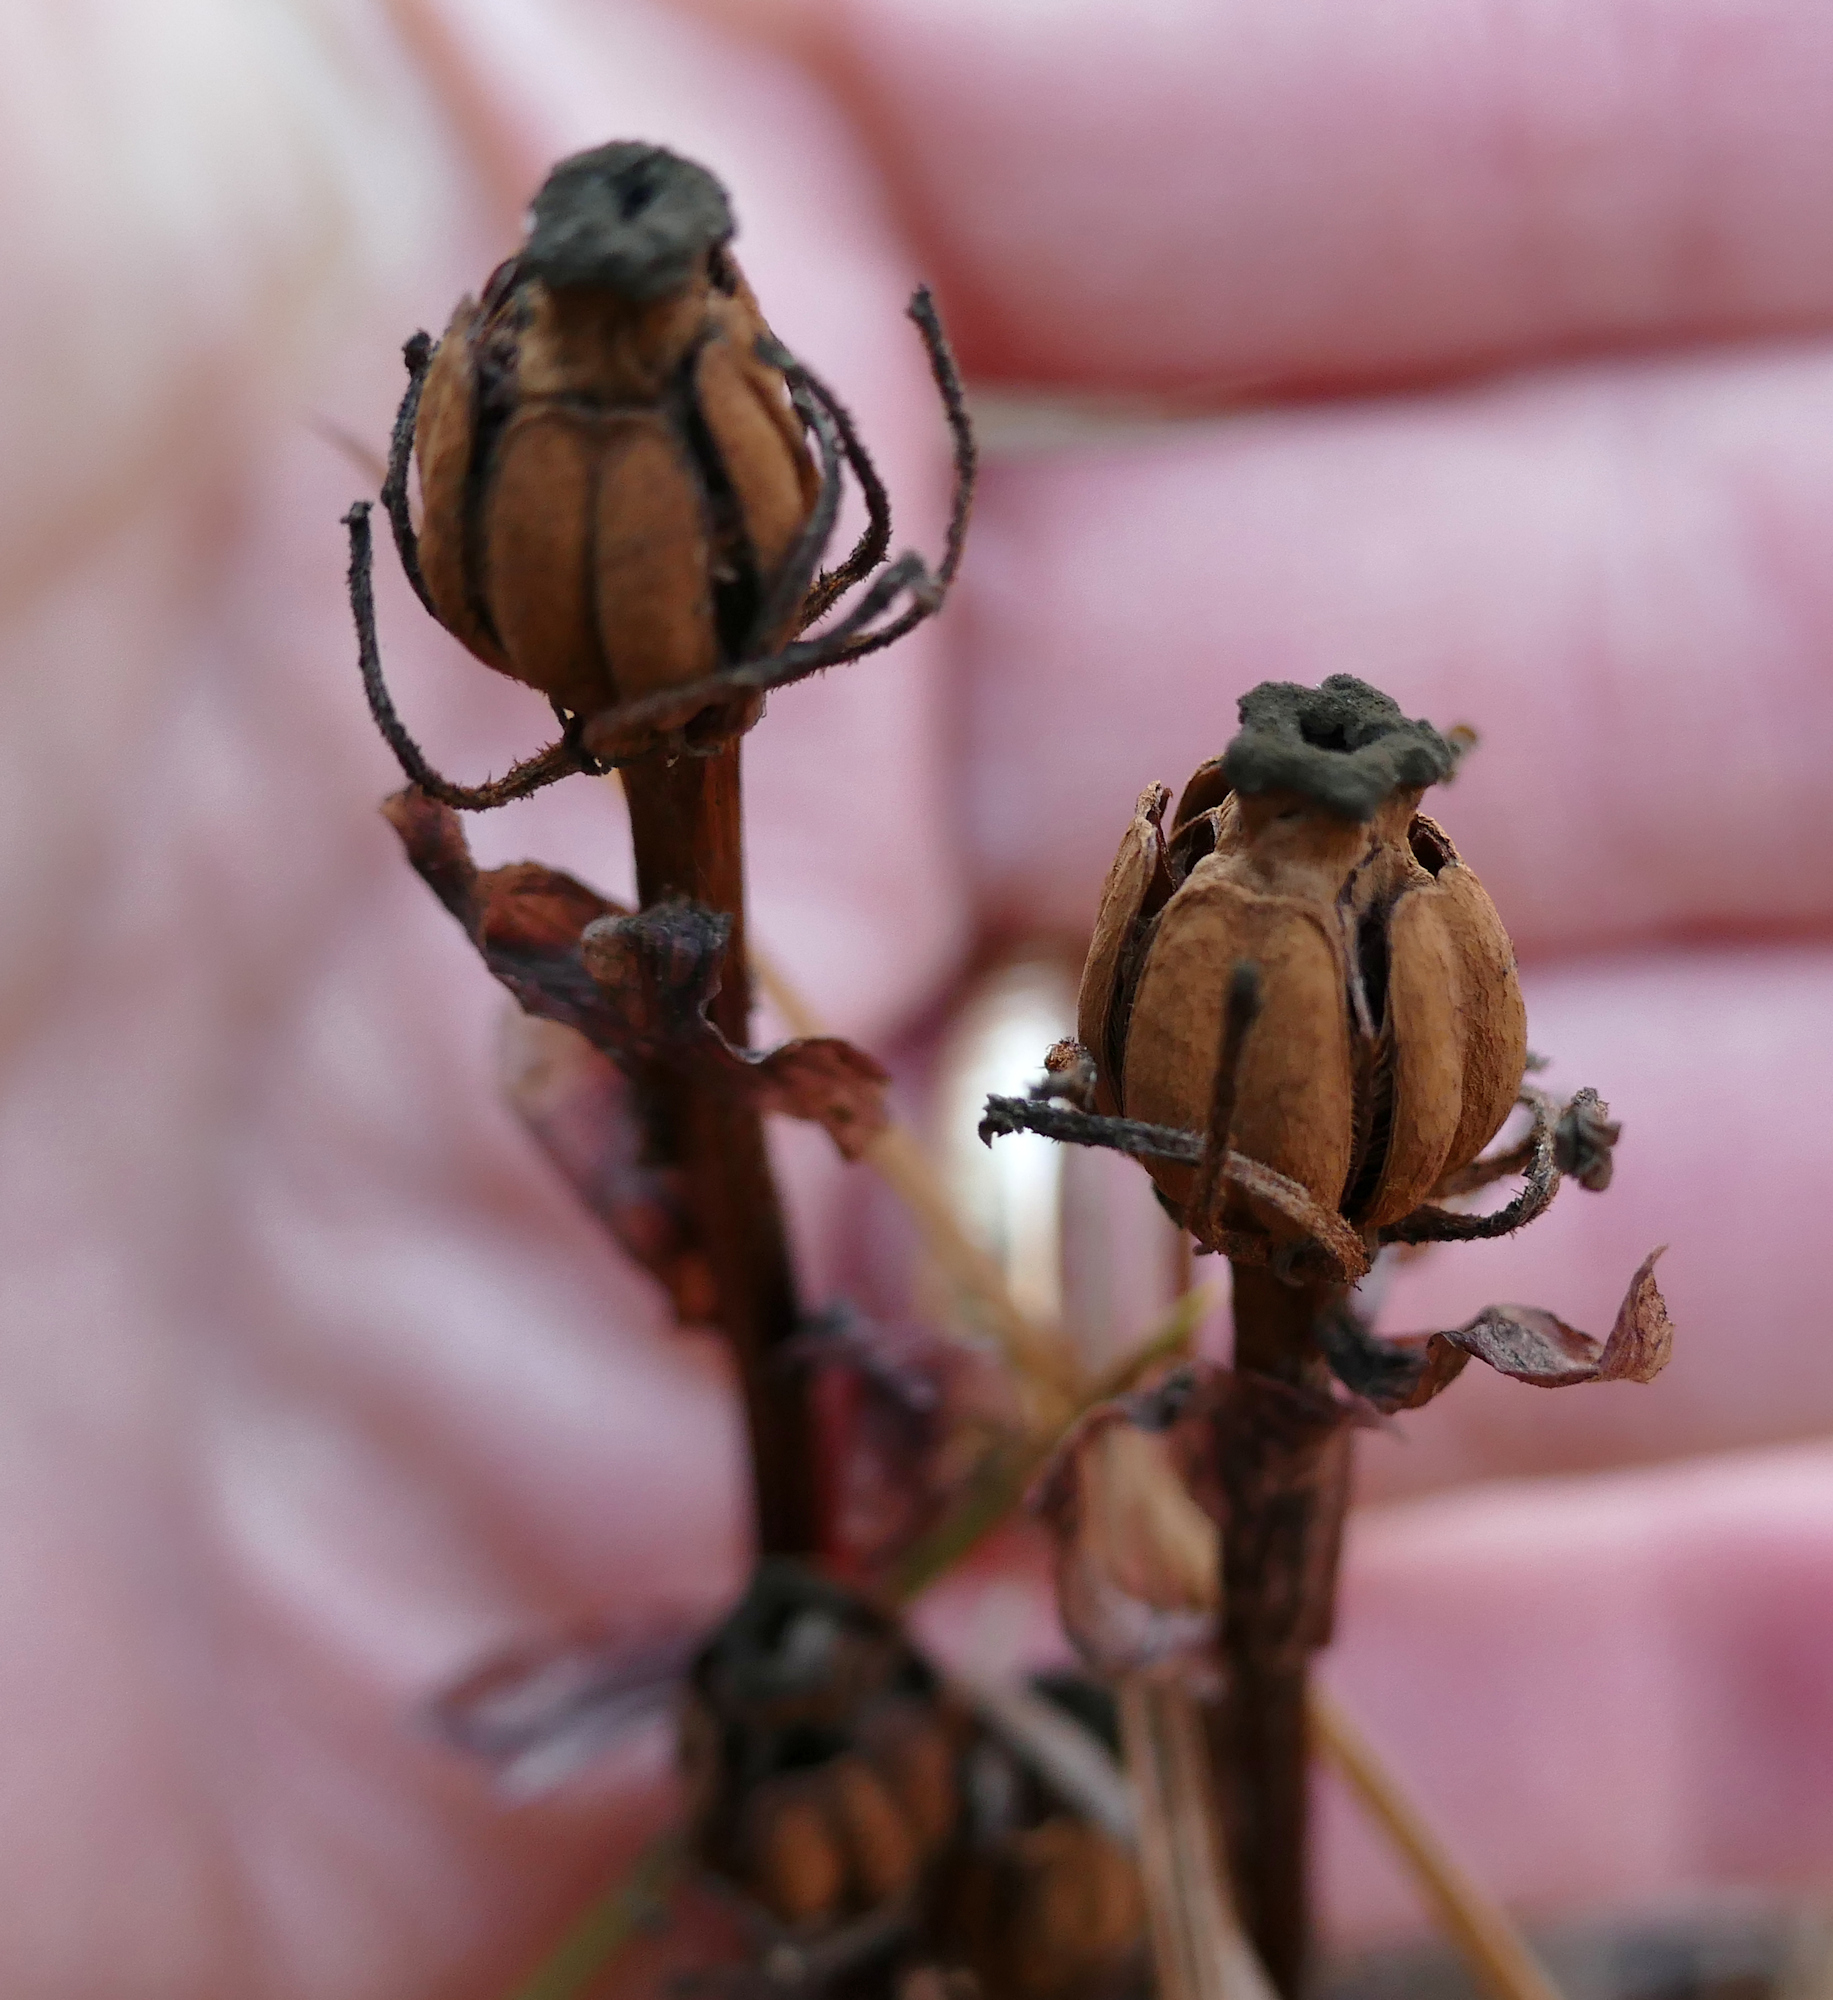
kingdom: Plantae
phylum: Tracheophyta
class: Magnoliopsida
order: Ericales
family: Ericaceae
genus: Monotropa
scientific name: Monotropa uniflora
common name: Convulsion root
